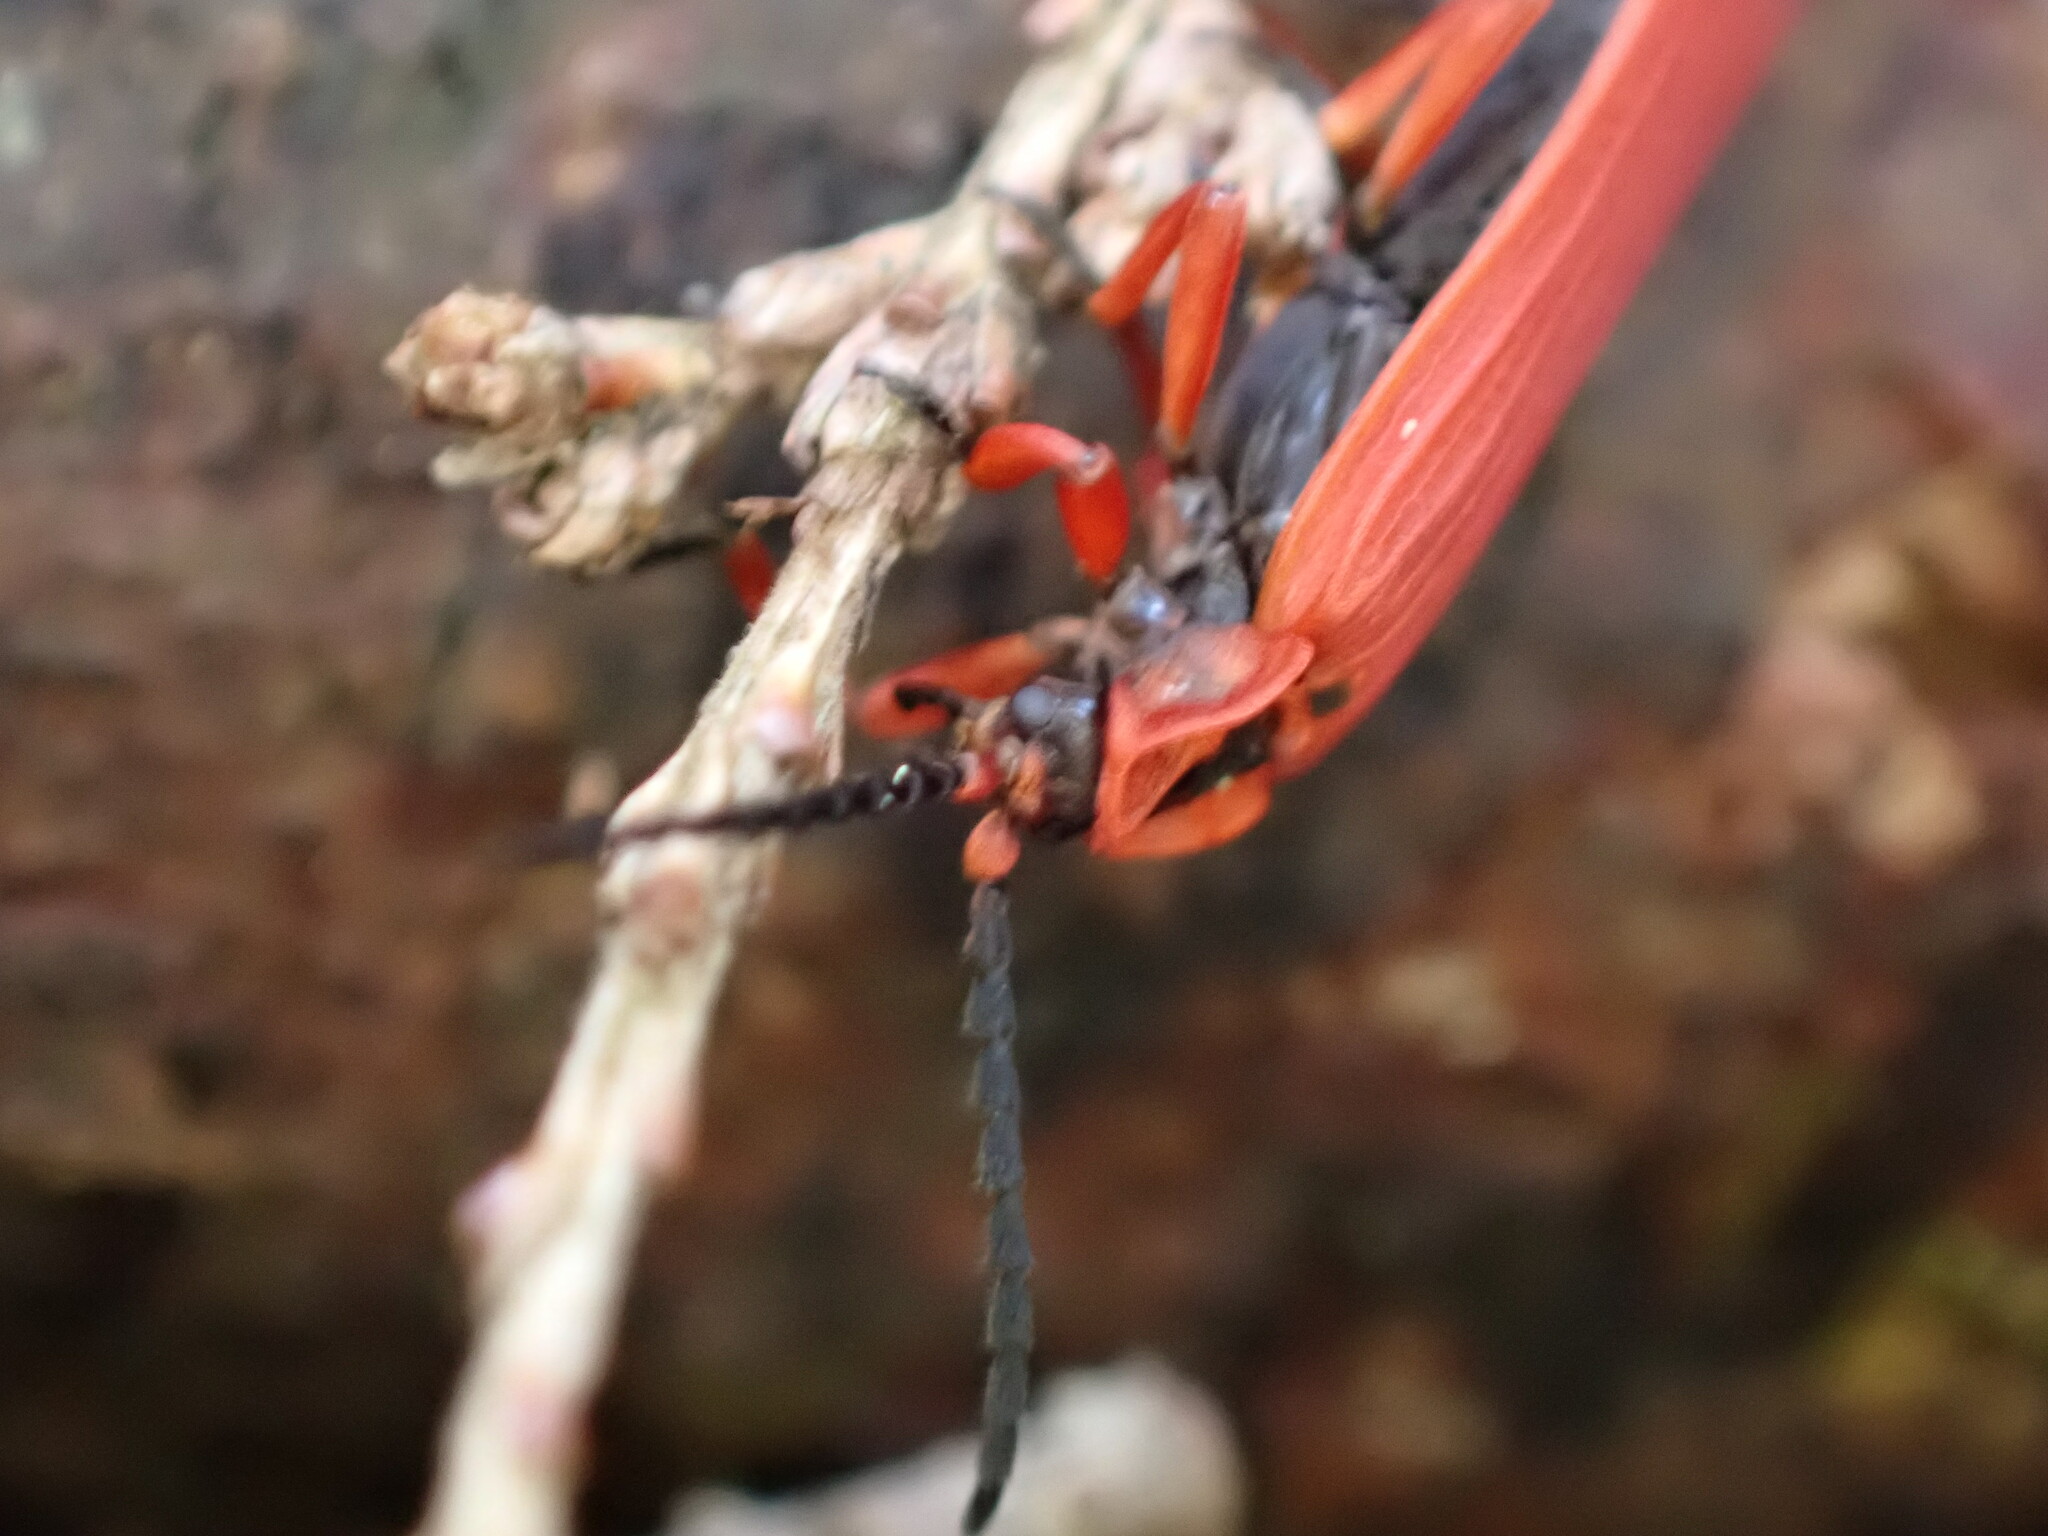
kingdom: Animalia
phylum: Arthropoda
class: Insecta
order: Coleoptera
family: Lycidae
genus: Dictyoptera
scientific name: Dictyoptera simplicipes
